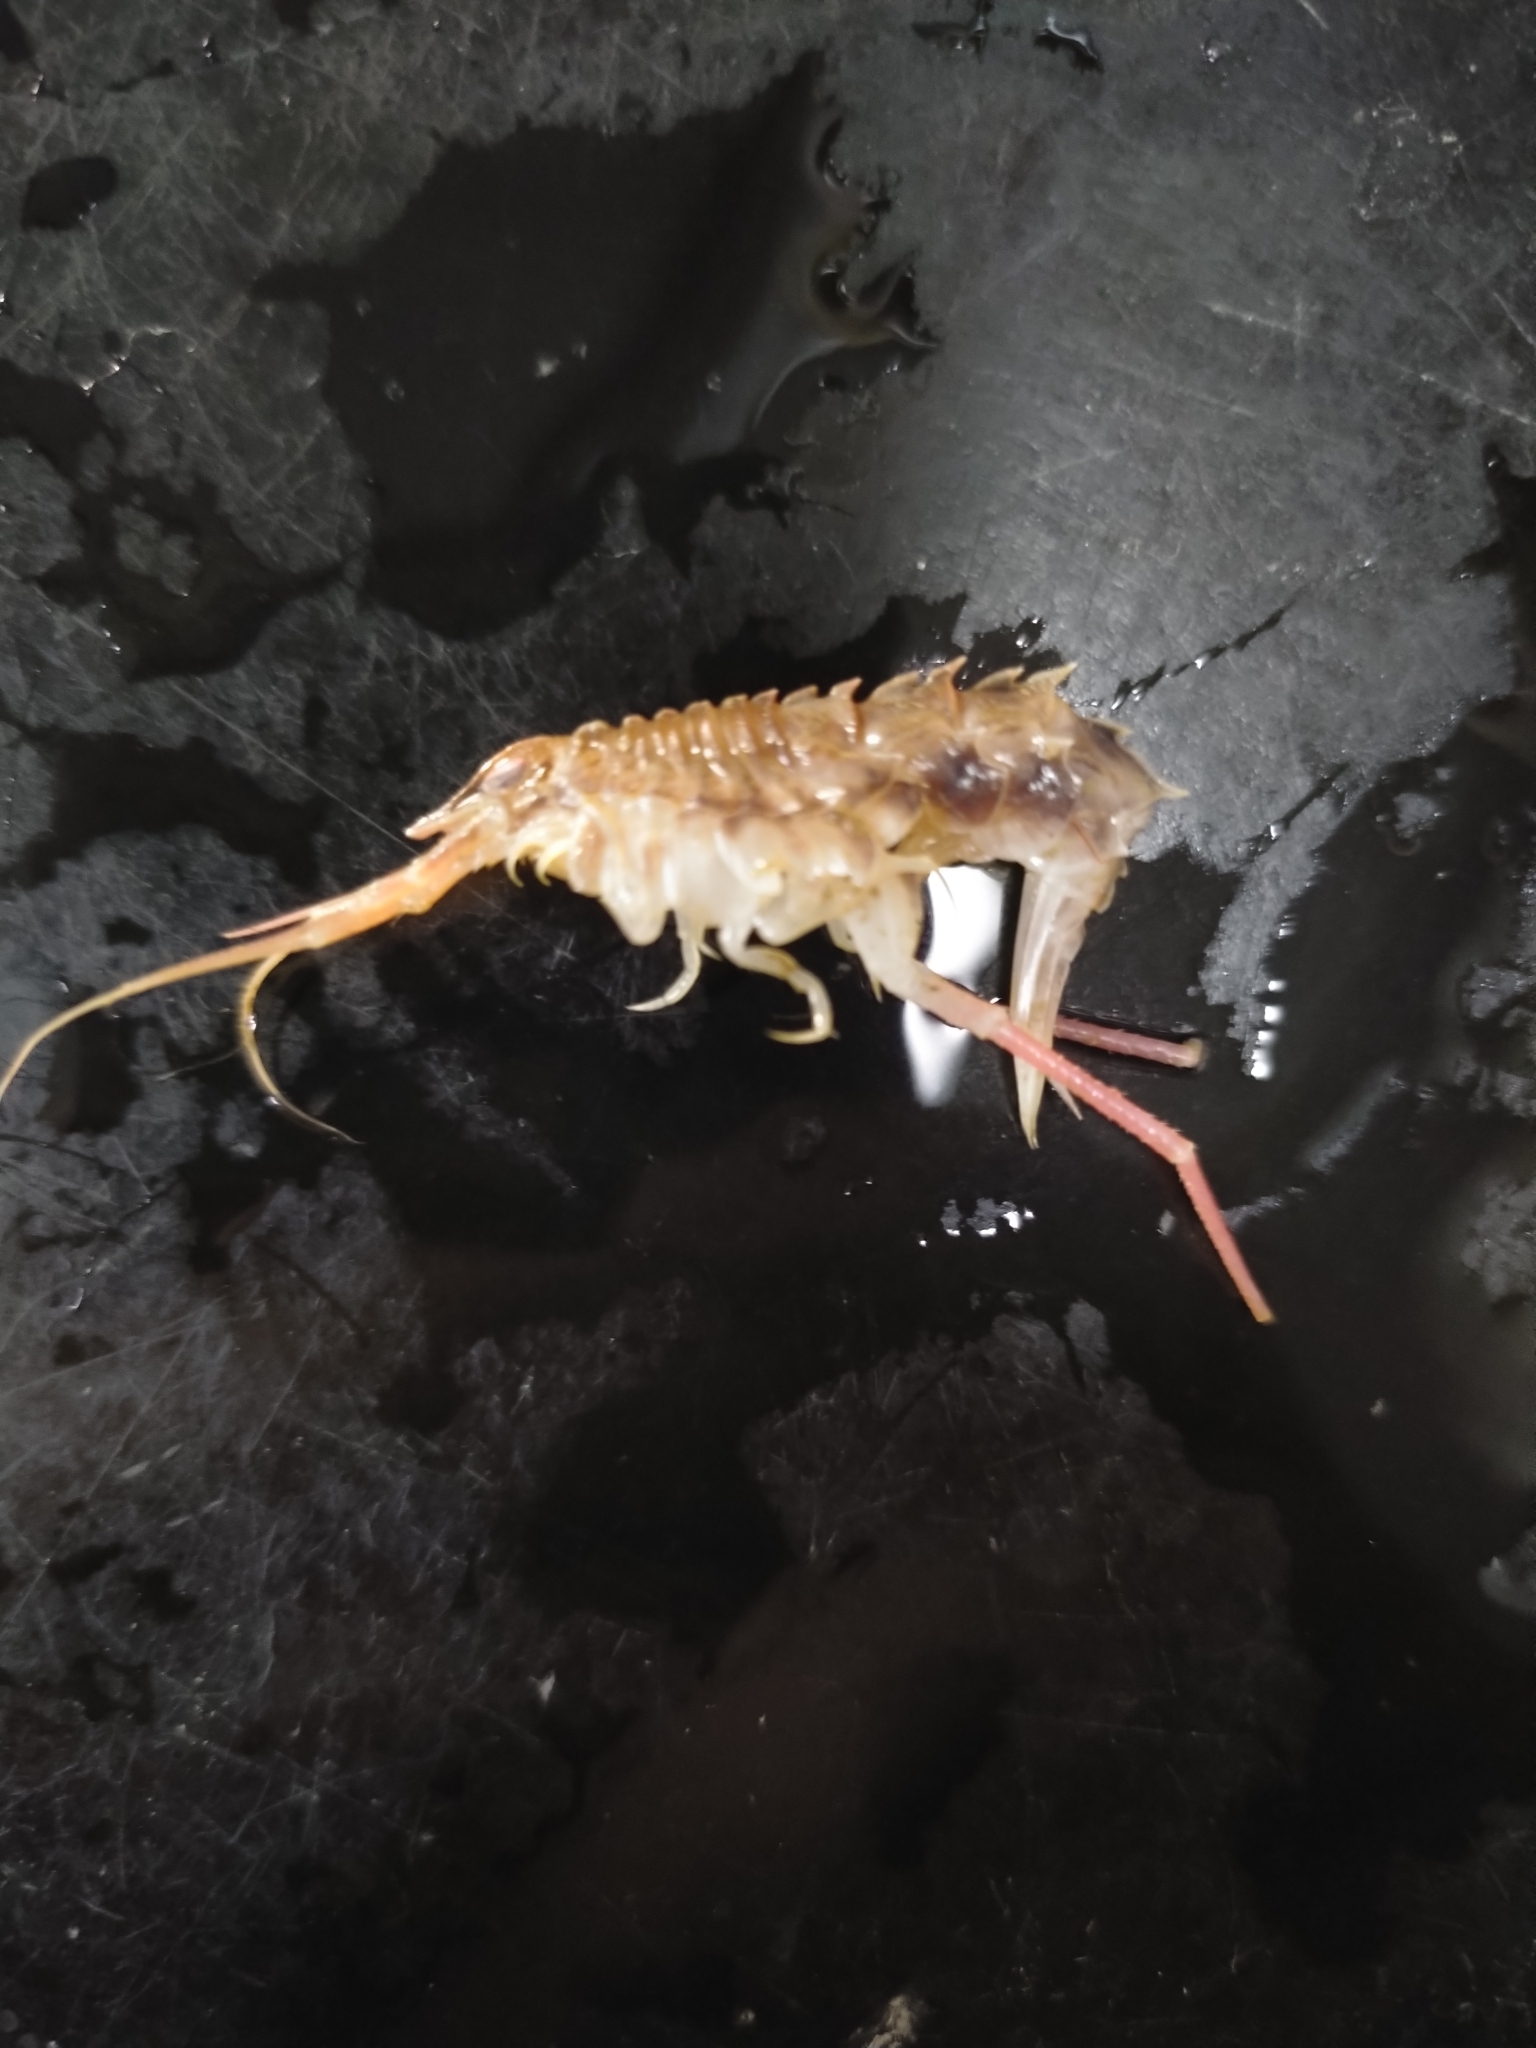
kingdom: Animalia
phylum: Arthropoda
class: Malacostraca
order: Amphipoda
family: Oedicerotidae
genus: Acanthostepheia
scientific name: Acanthostepheia malmgreni
